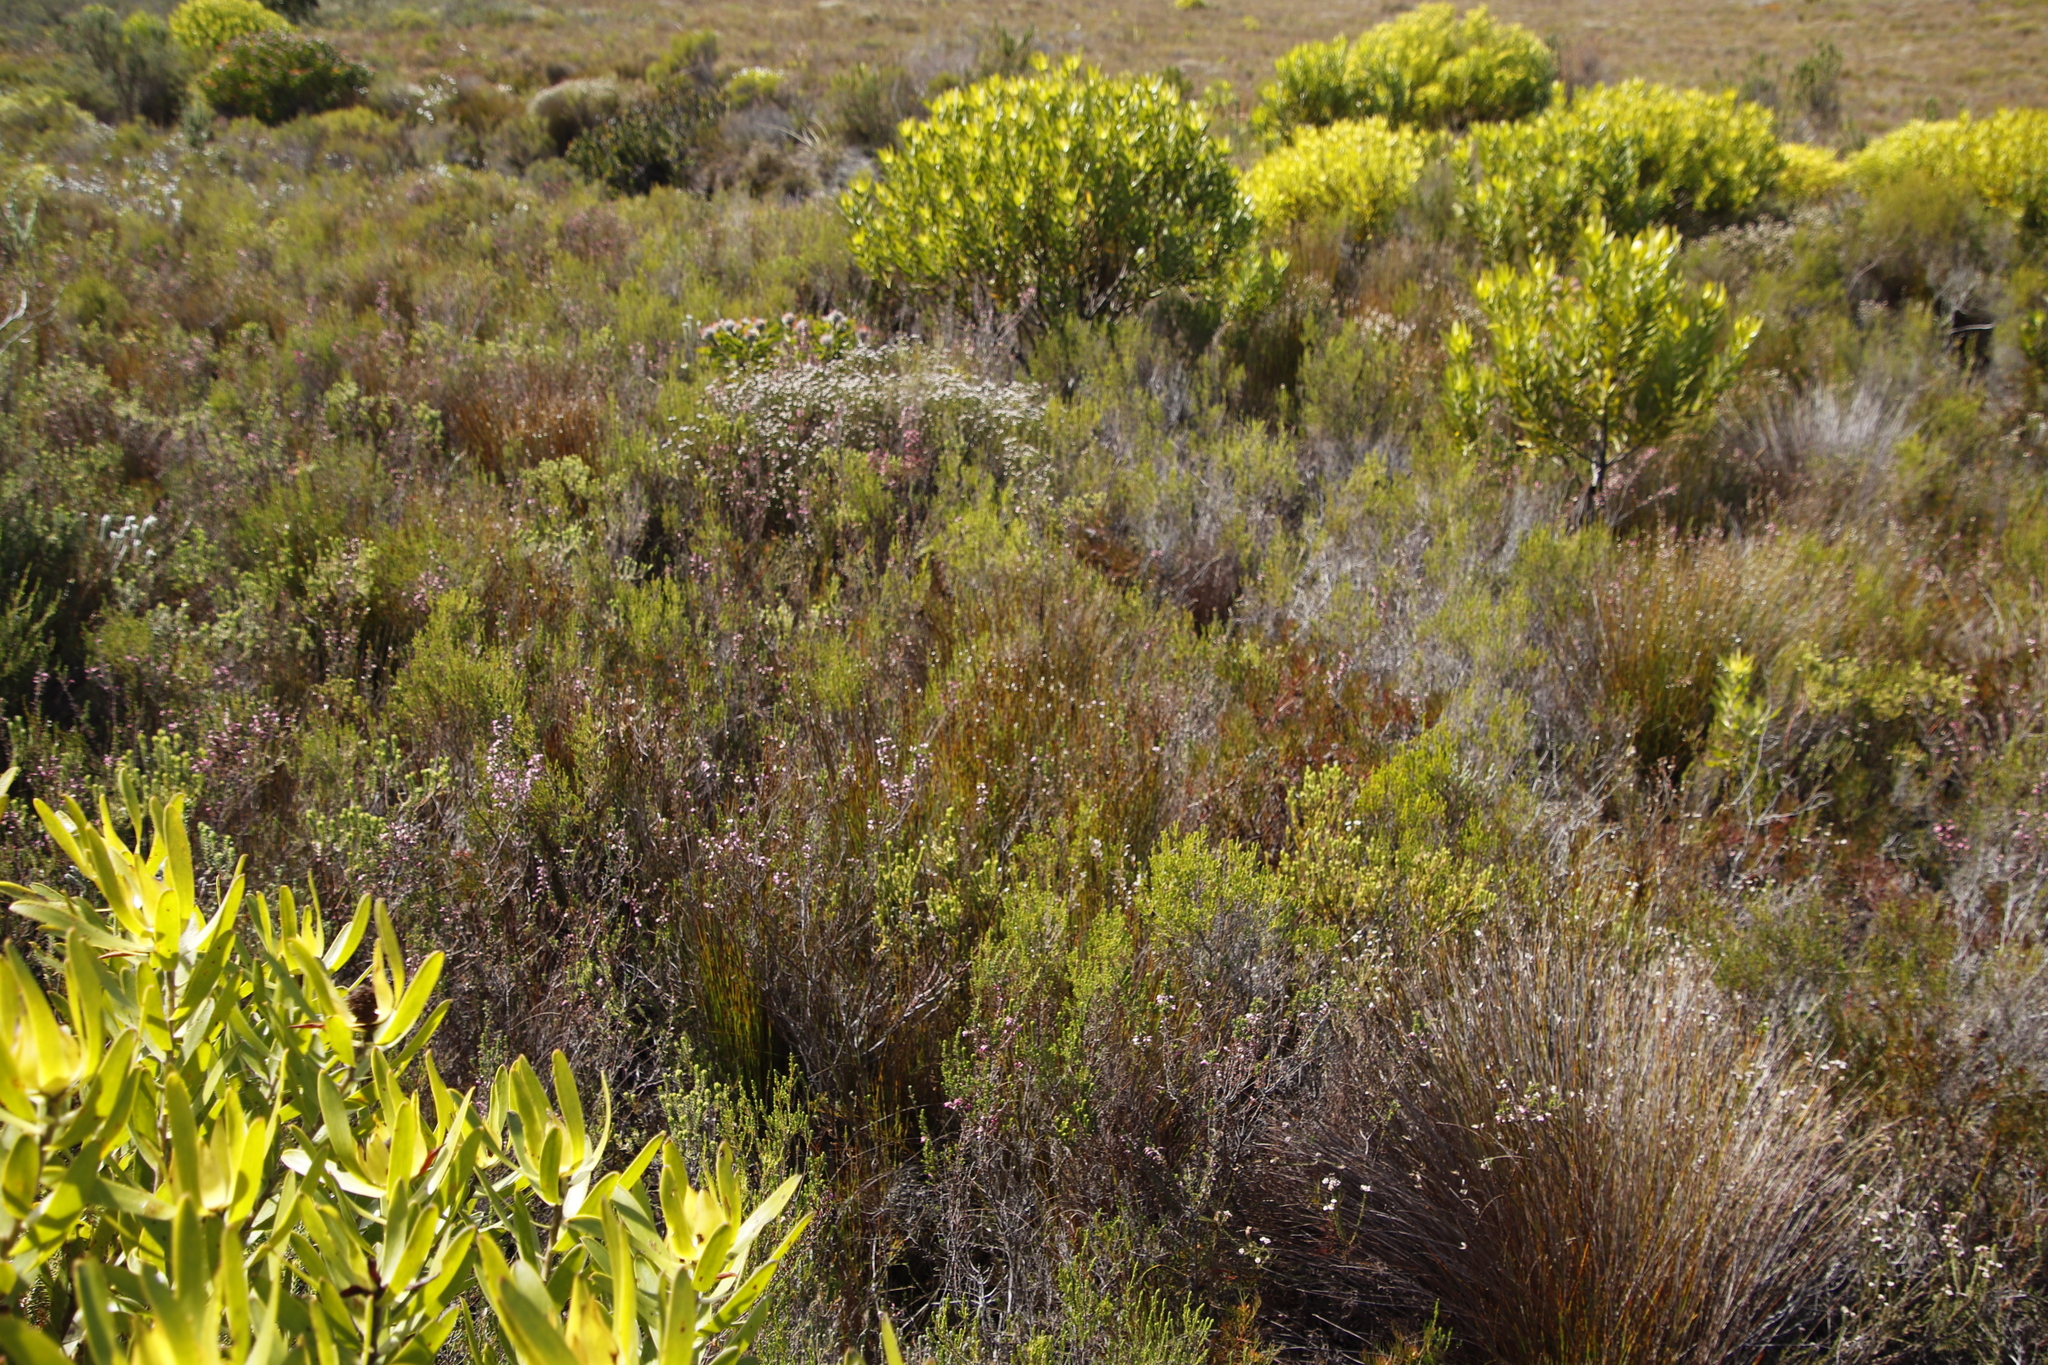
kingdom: Plantae
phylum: Tracheophyta
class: Magnoliopsida
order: Proteales
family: Proteaceae
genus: Serruria
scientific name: Serruria bolusii
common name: Agulhas spiderhead
